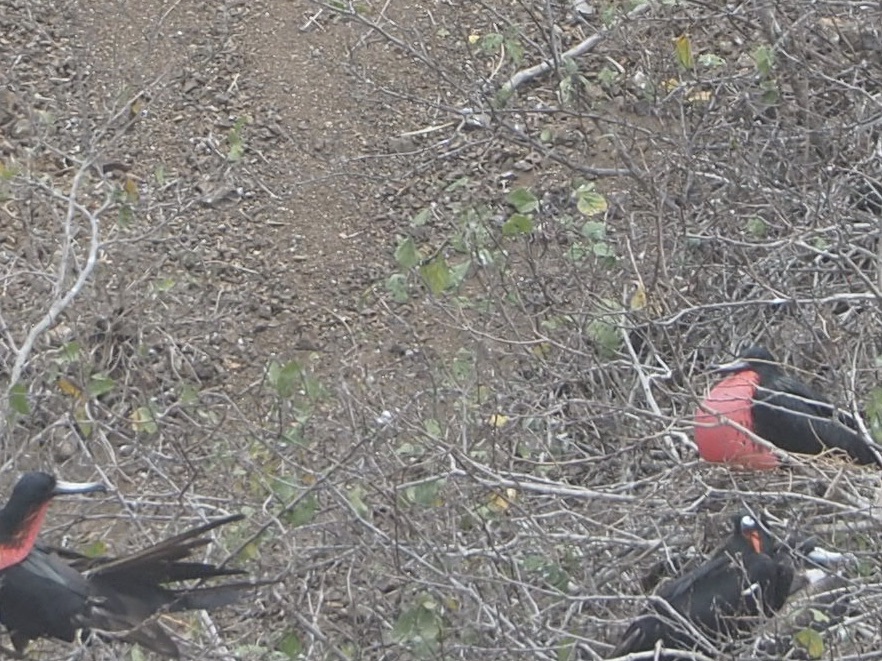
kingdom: Animalia
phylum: Chordata
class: Aves
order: Suliformes
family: Fregatidae
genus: Fregata
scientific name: Fregata magnificens
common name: Magnificent frigatebird
